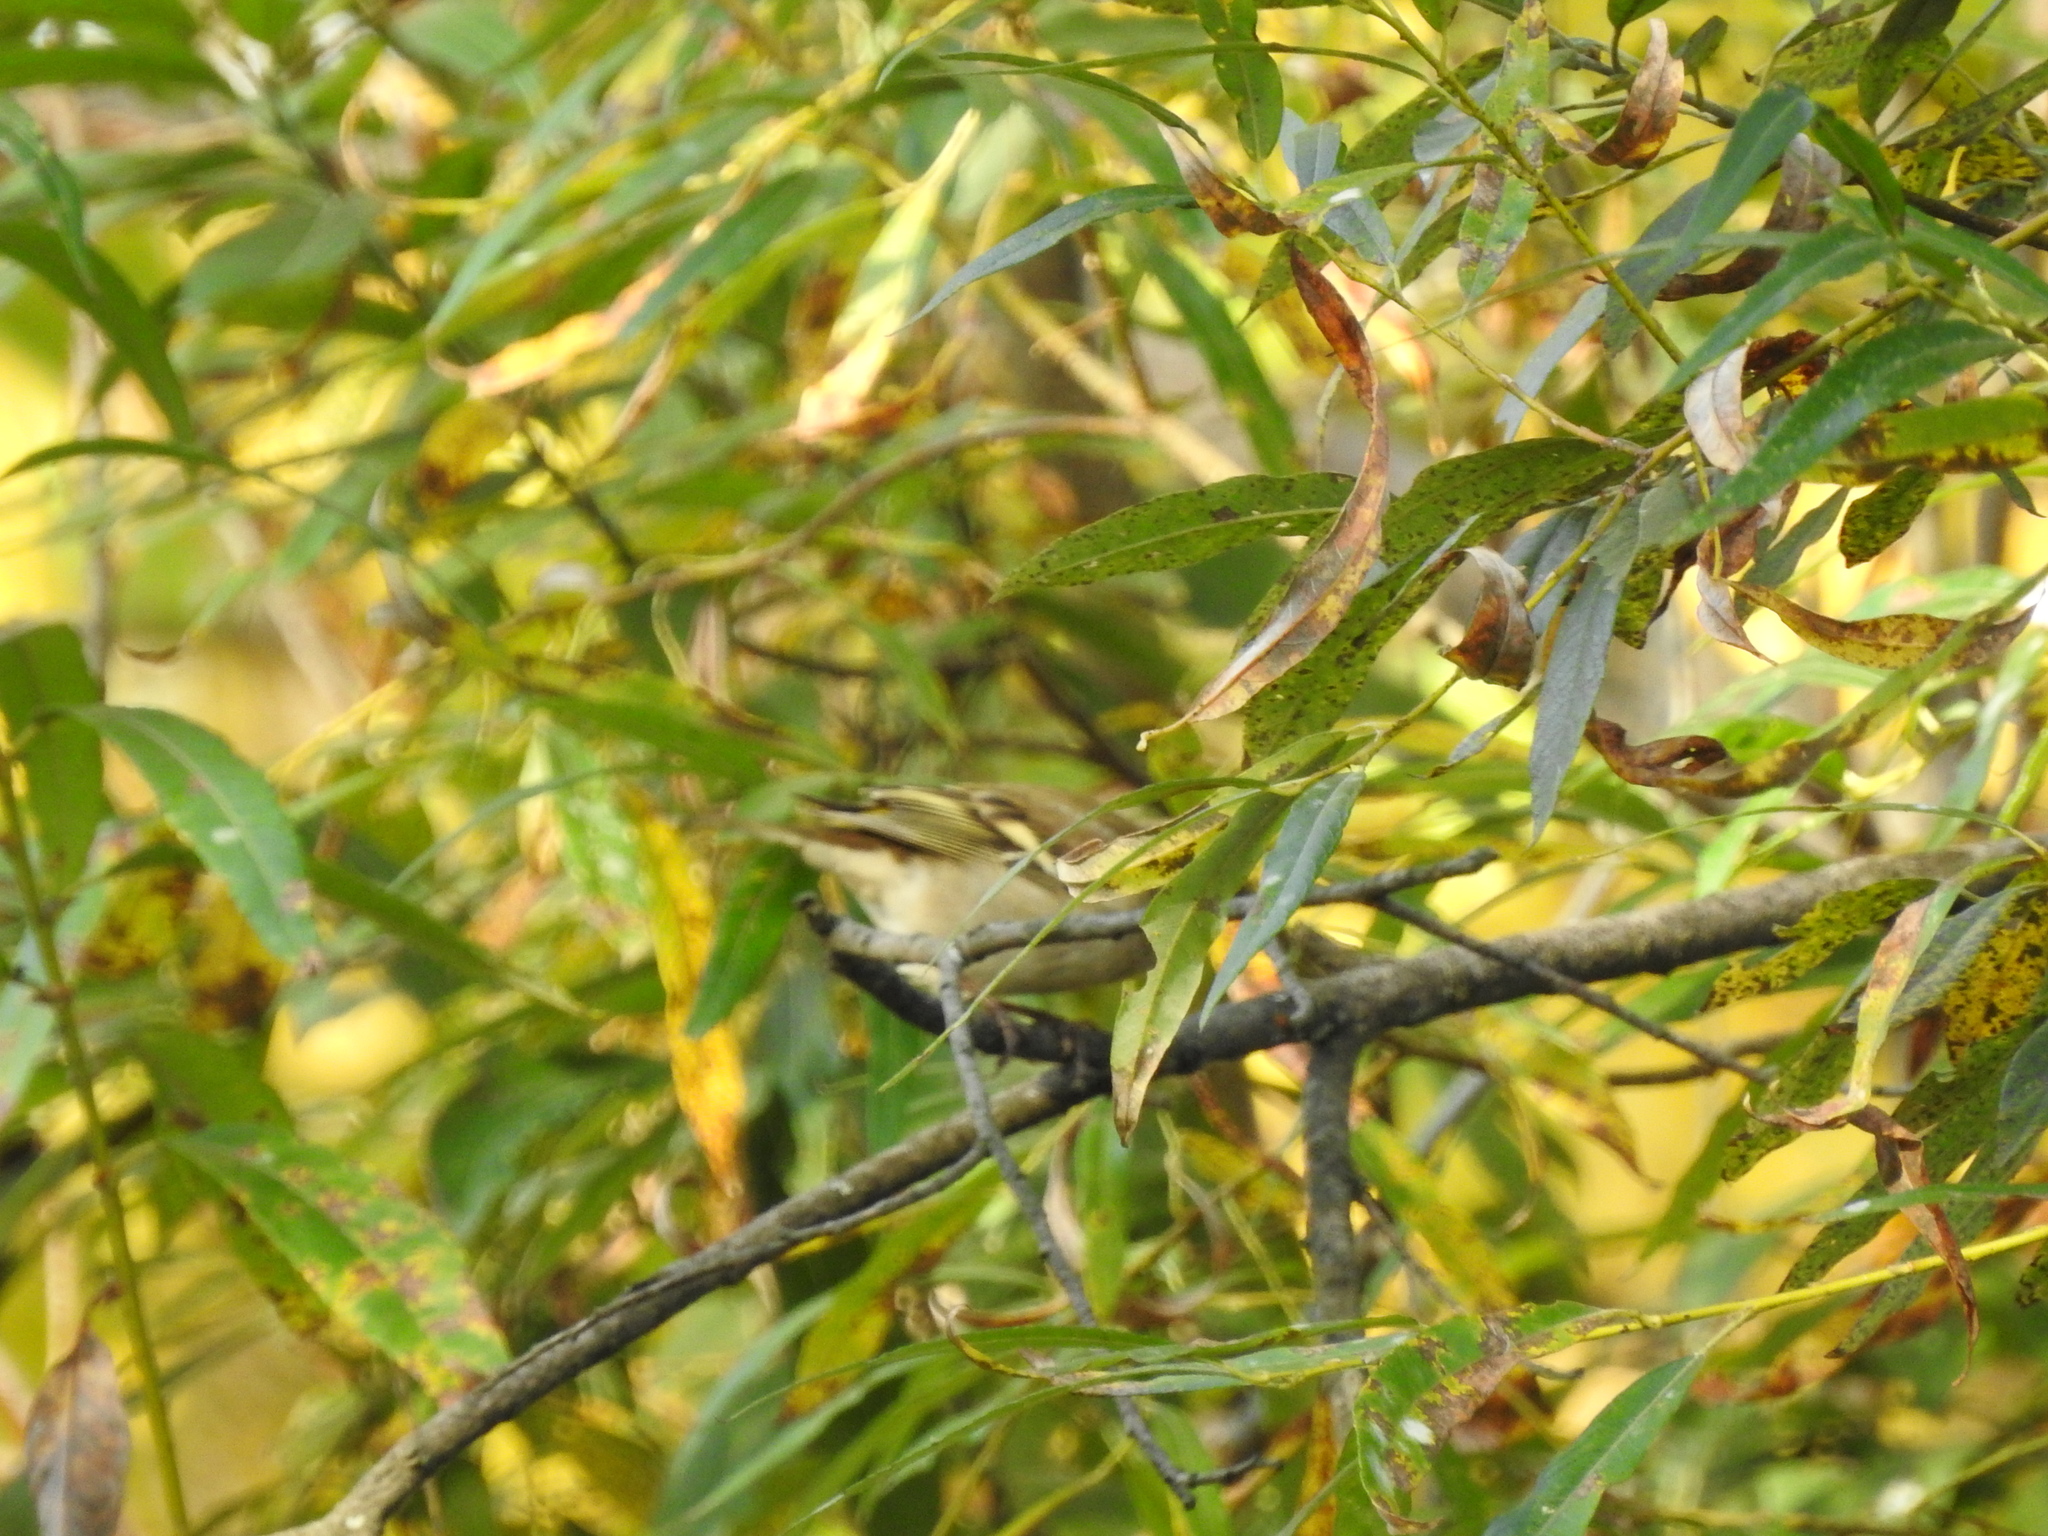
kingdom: Animalia
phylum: Chordata
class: Aves
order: Passeriformes
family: Fringillidae
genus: Fringilla
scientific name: Fringilla coelebs
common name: Common chaffinch
